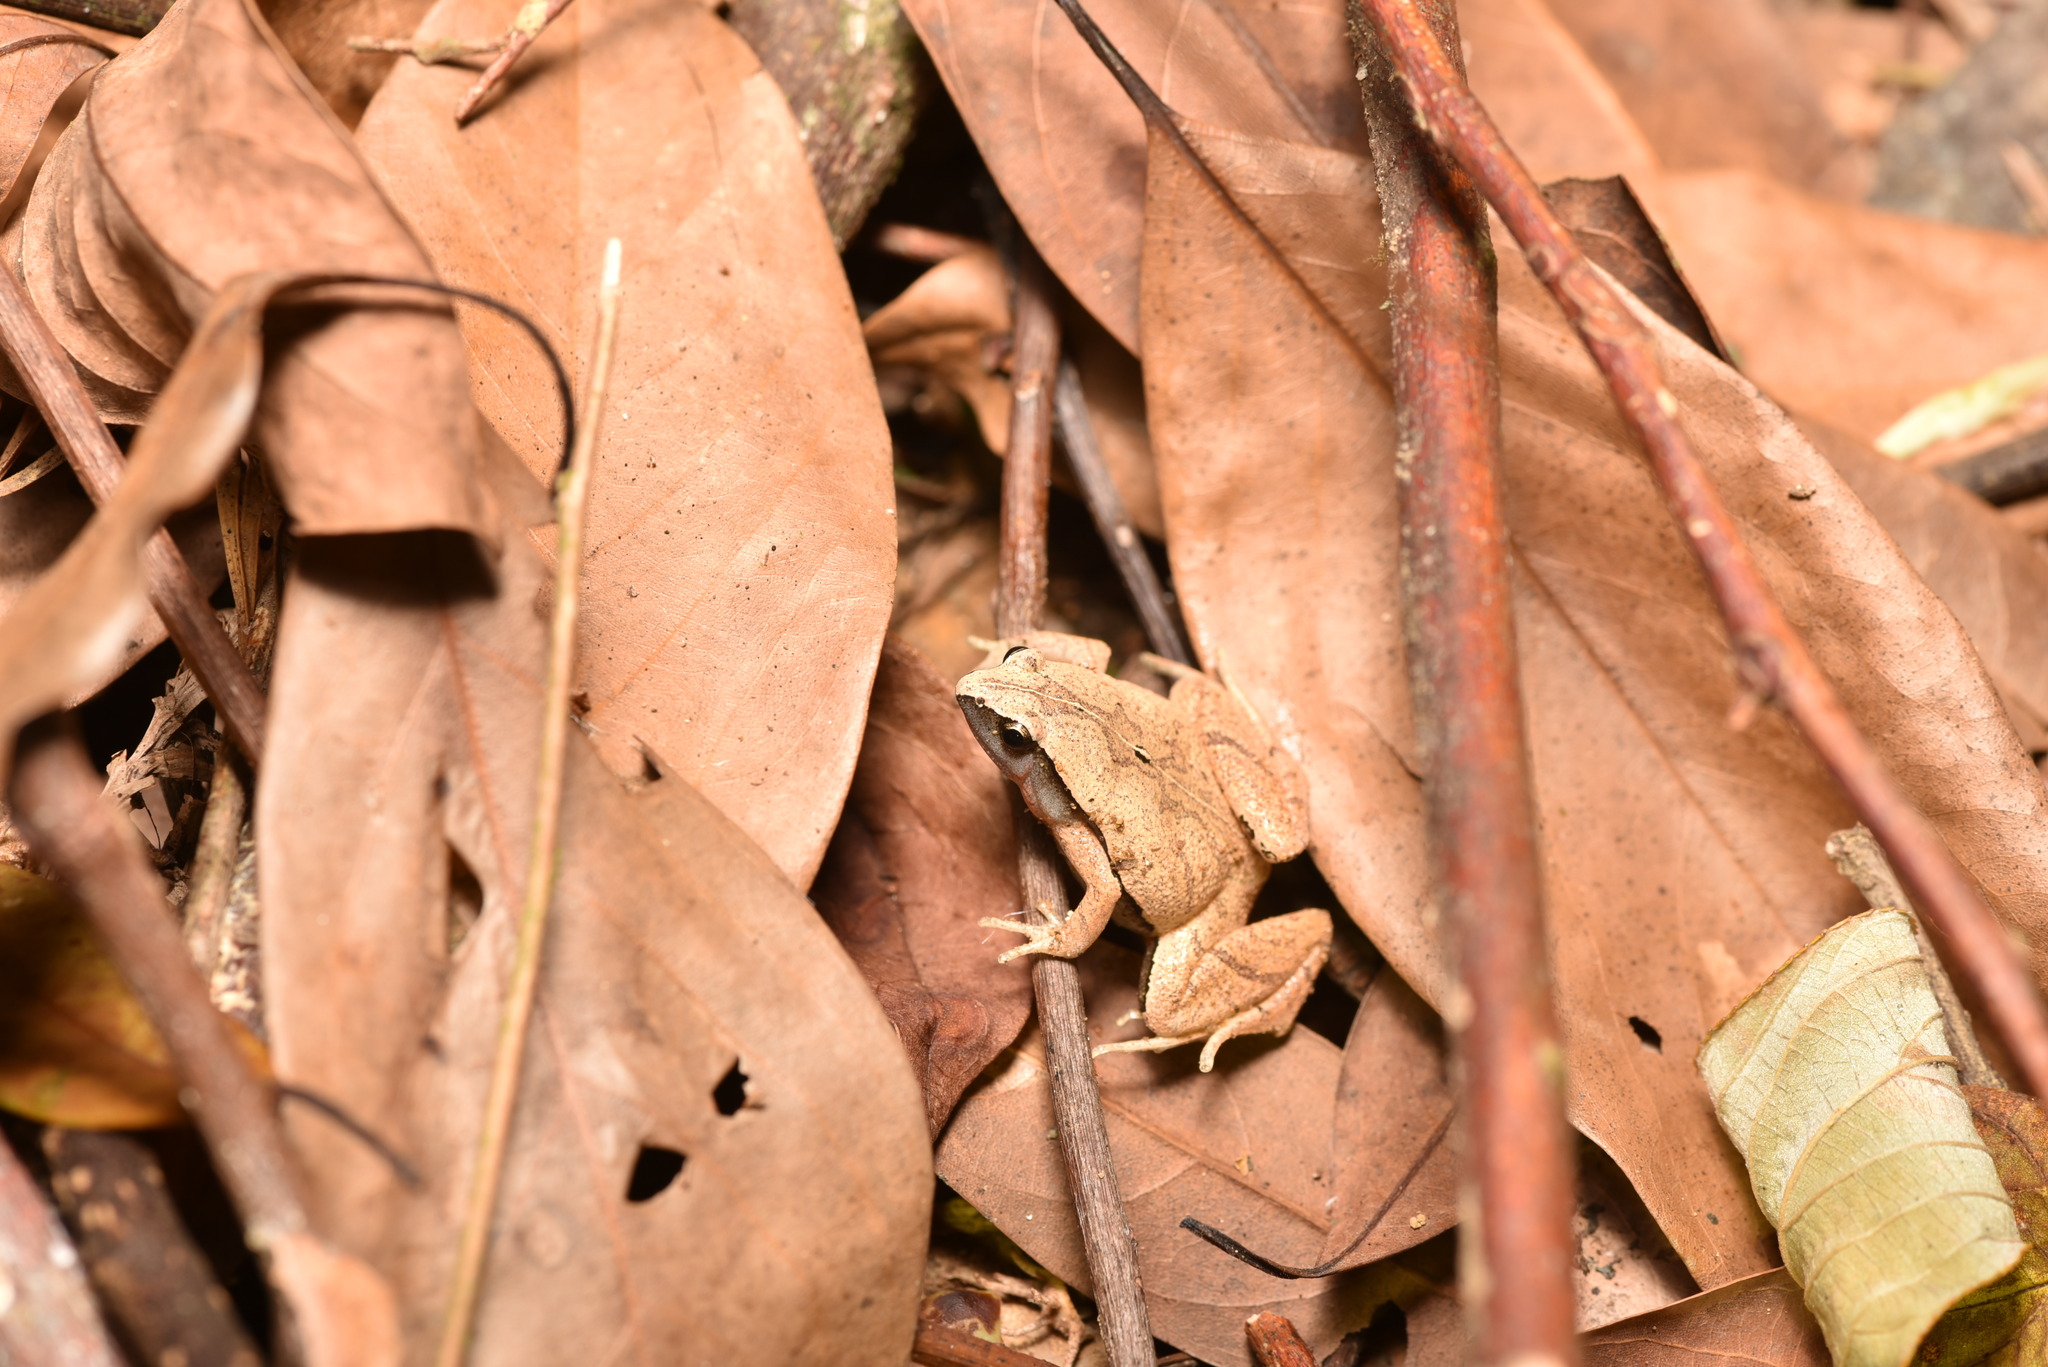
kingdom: Animalia
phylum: Chordata
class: Amphibia
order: Anura
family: Microhylidae
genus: Microhyla
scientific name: Microhyla heymonsi
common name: Taiwan rice frog,dark sided chorus frog
